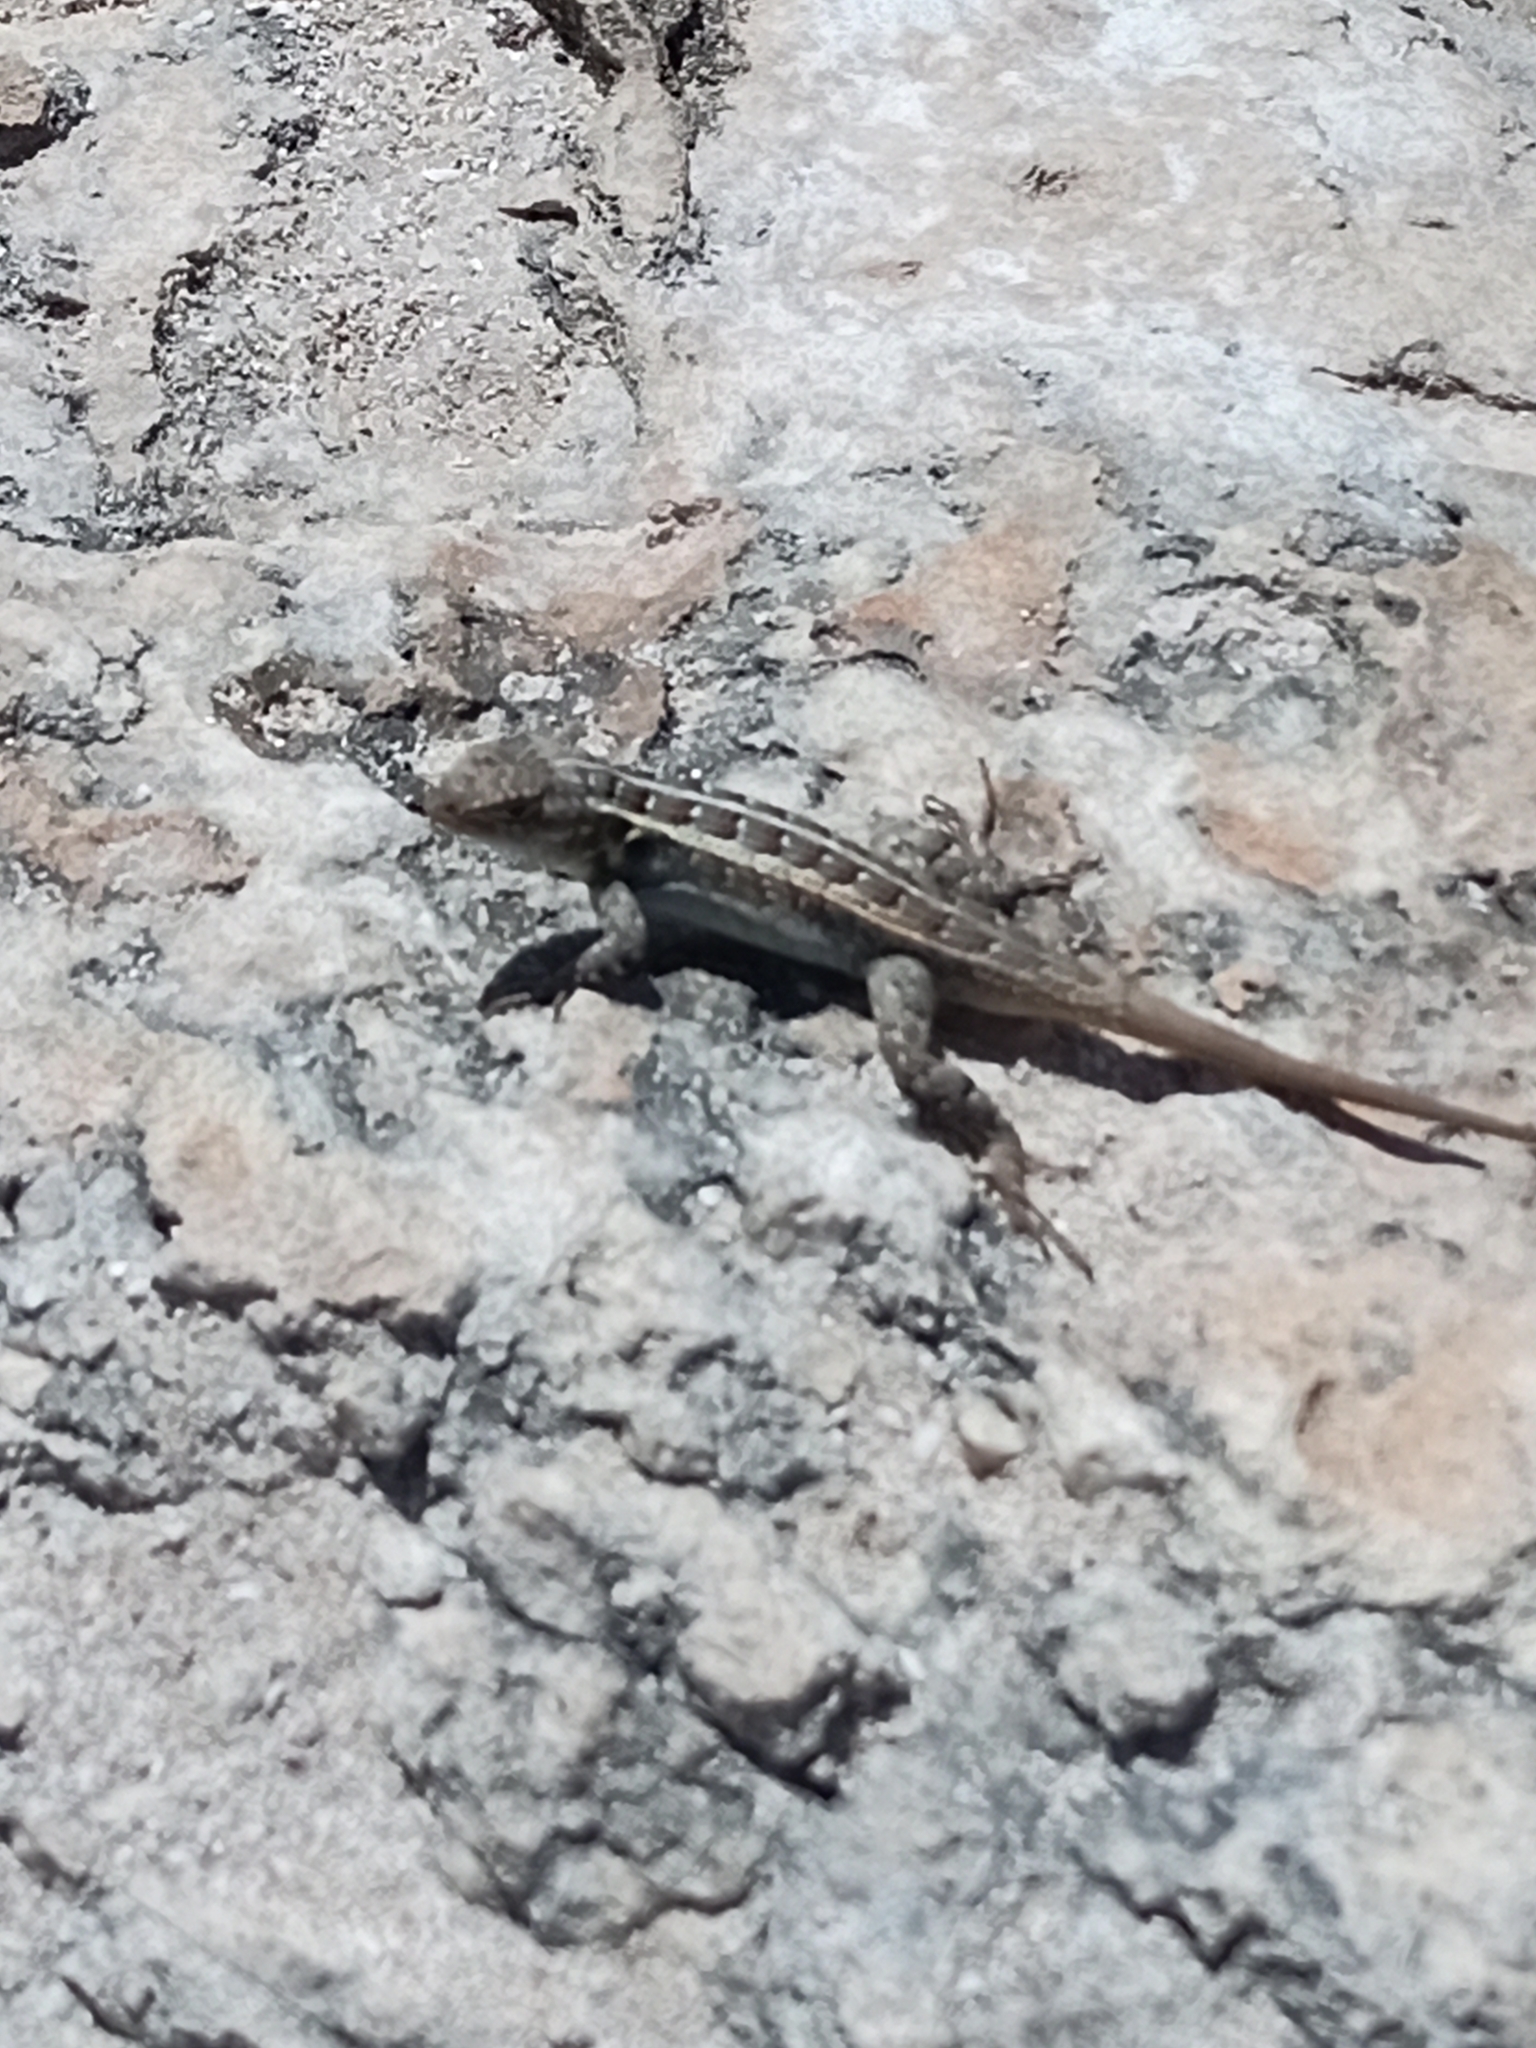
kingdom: Animalia
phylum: Chordata
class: Squamata
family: Phrynosomatidae
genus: Sceloporus
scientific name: Sceloporus cozumelae
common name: Cozumel spiny lizard
